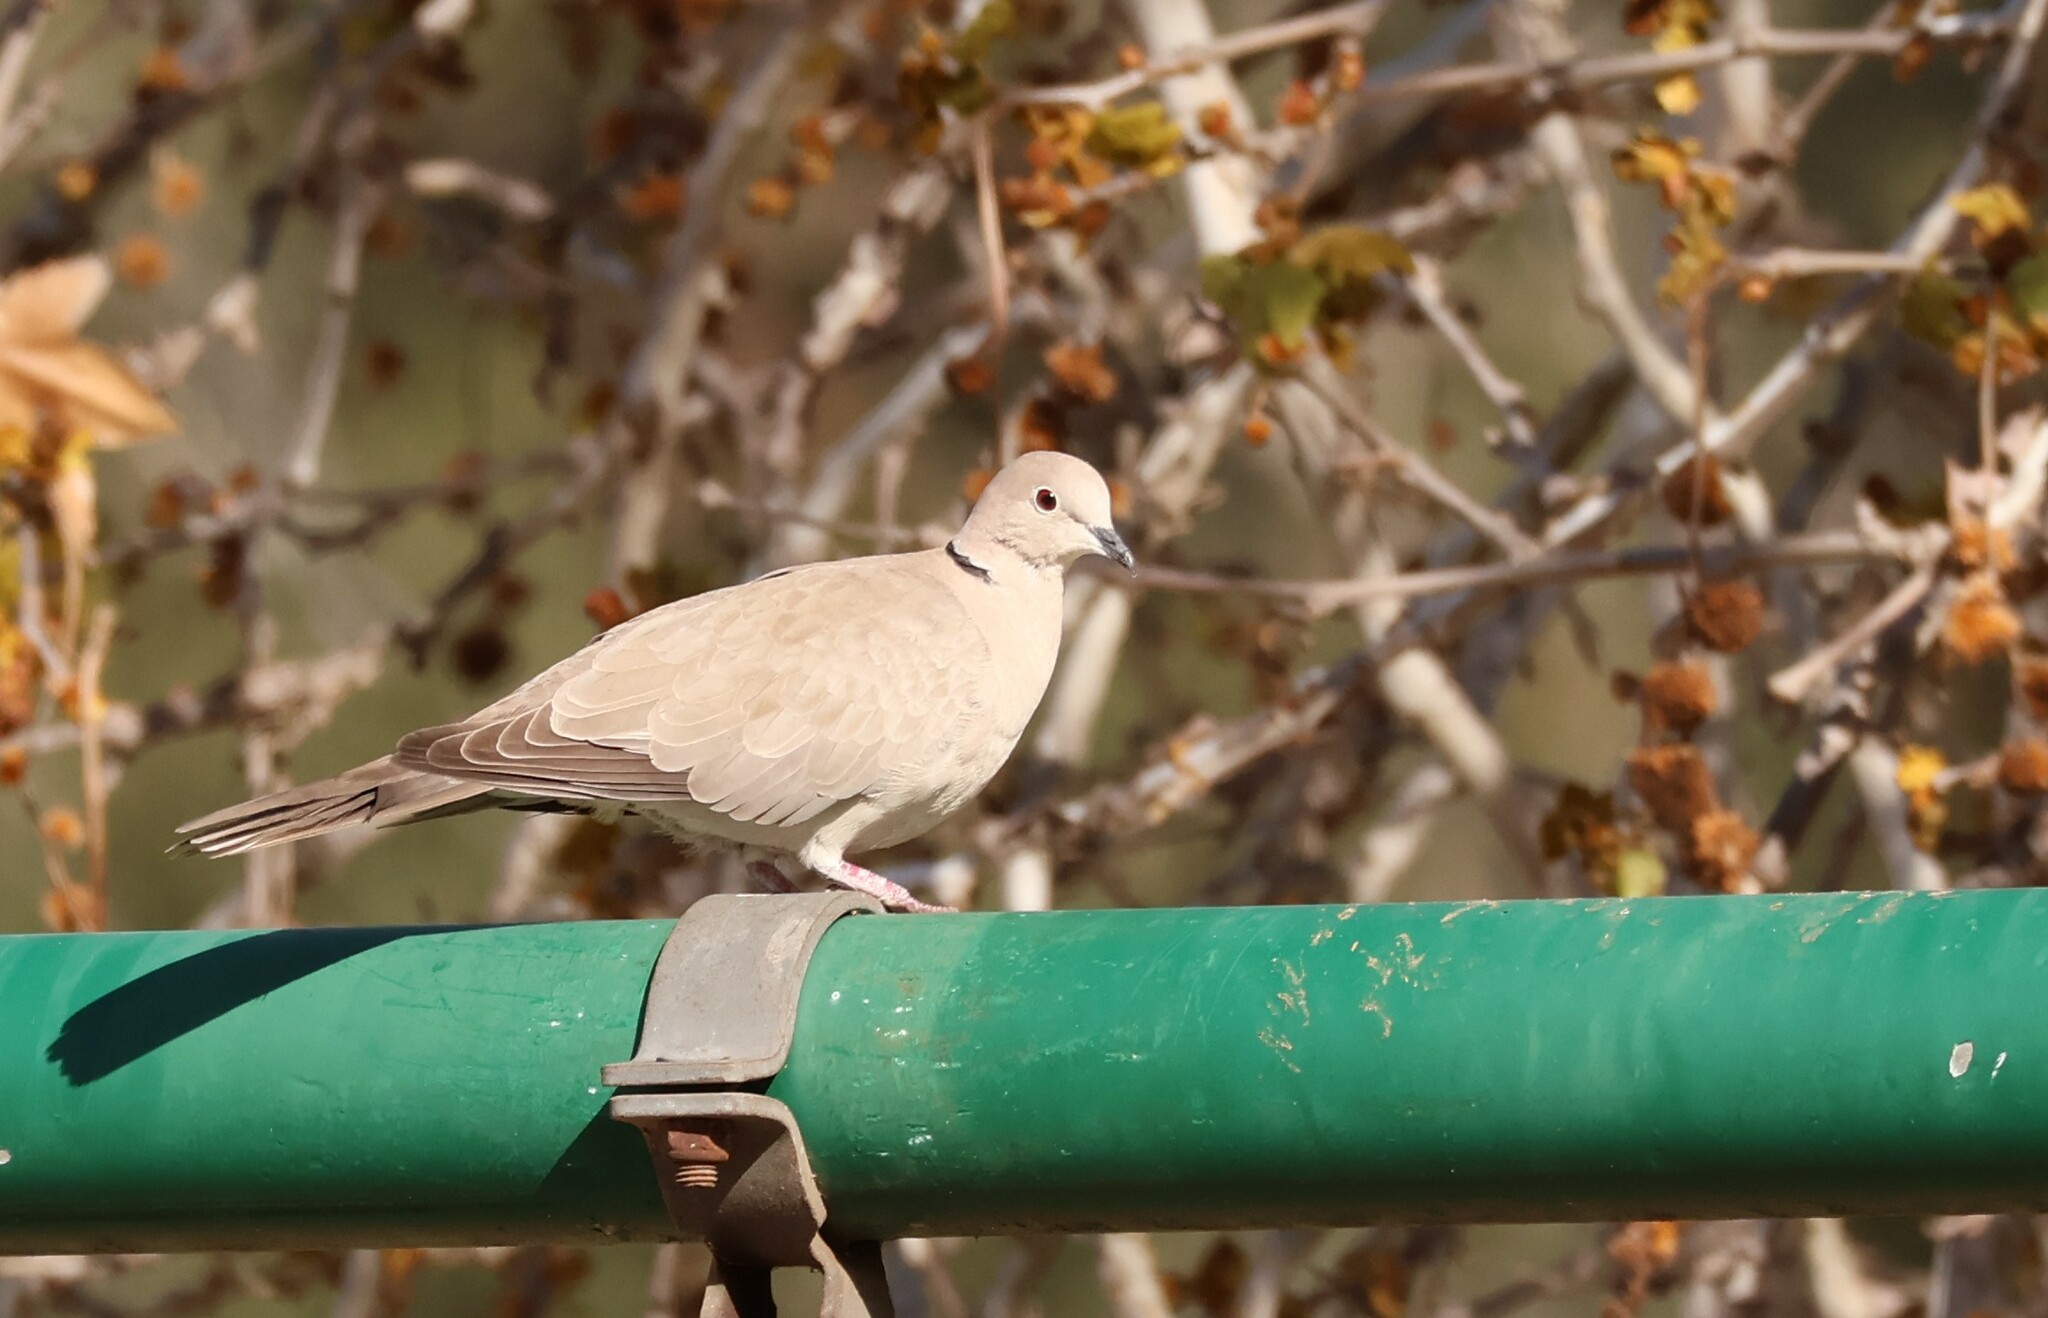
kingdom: Animalia
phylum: Chordata
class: Aves
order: Columbiformes
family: Columbidae
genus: Streptopelia
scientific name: Streptopelia decaocto
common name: Eurasian collared dove
